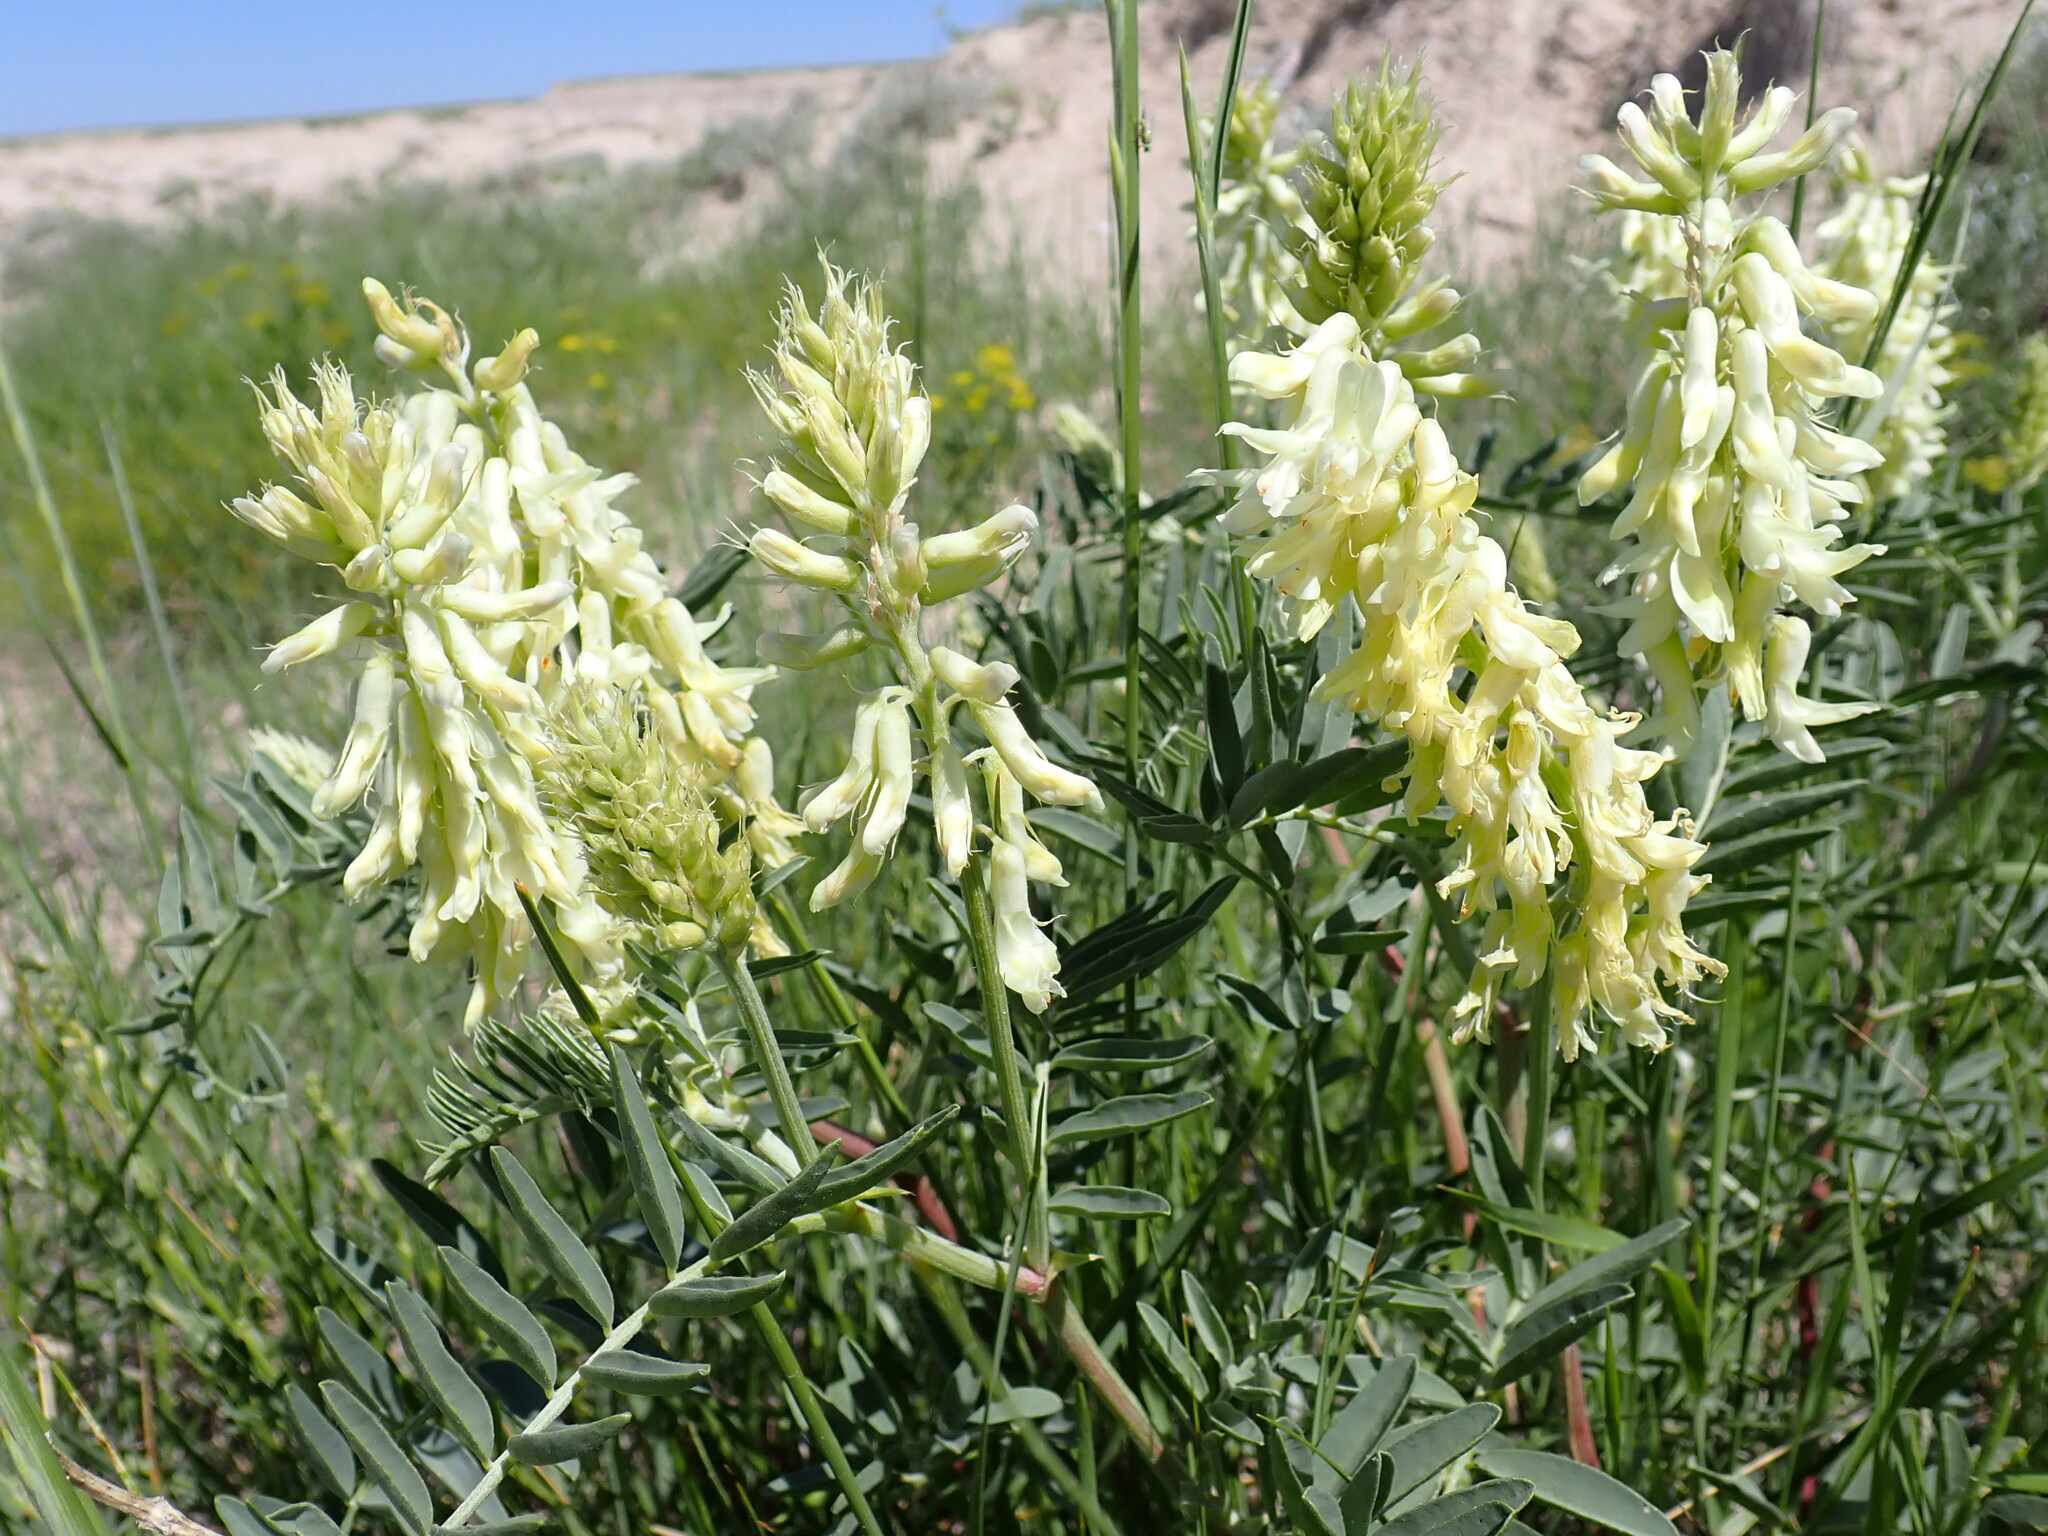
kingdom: Plantae
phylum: Tracheophyta
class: Magnoliopsida
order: Fabales
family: Fabaceae
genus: Astragalus
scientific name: Astragalus racemosus
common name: Alkali milk-vetch
